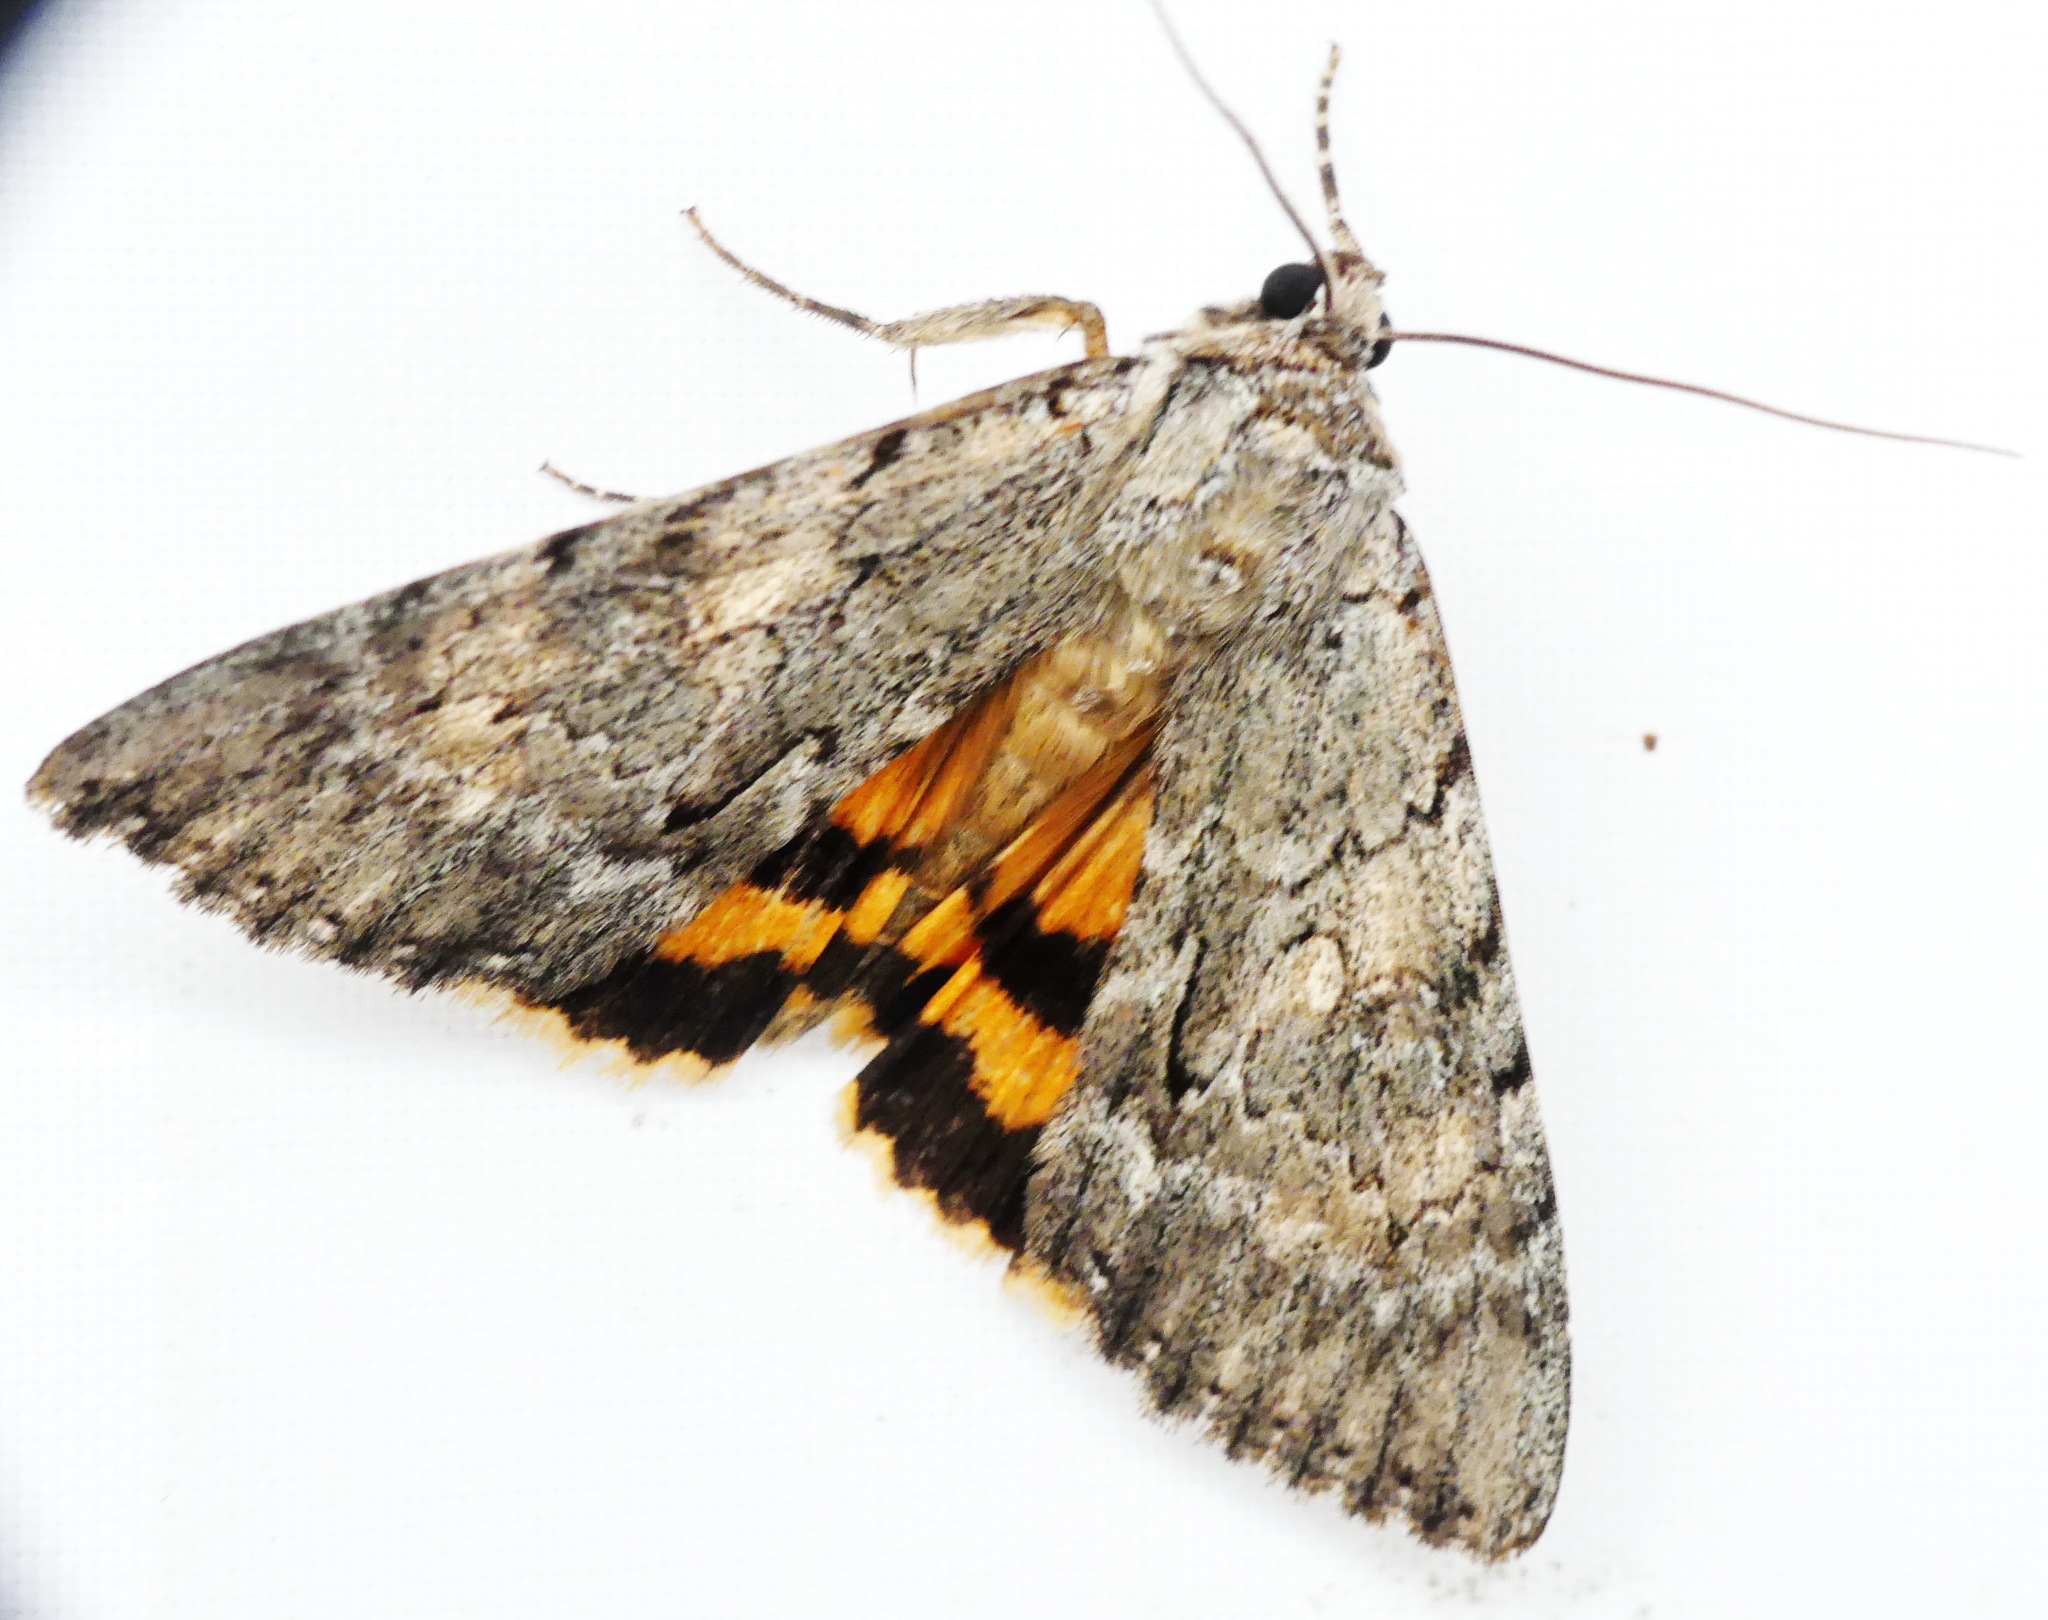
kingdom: Animalia
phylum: Arthropoda
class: Insecta
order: Lepidoptera
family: Erebidae
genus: Catocala
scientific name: Catocala habilis
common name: Habilis underwing
